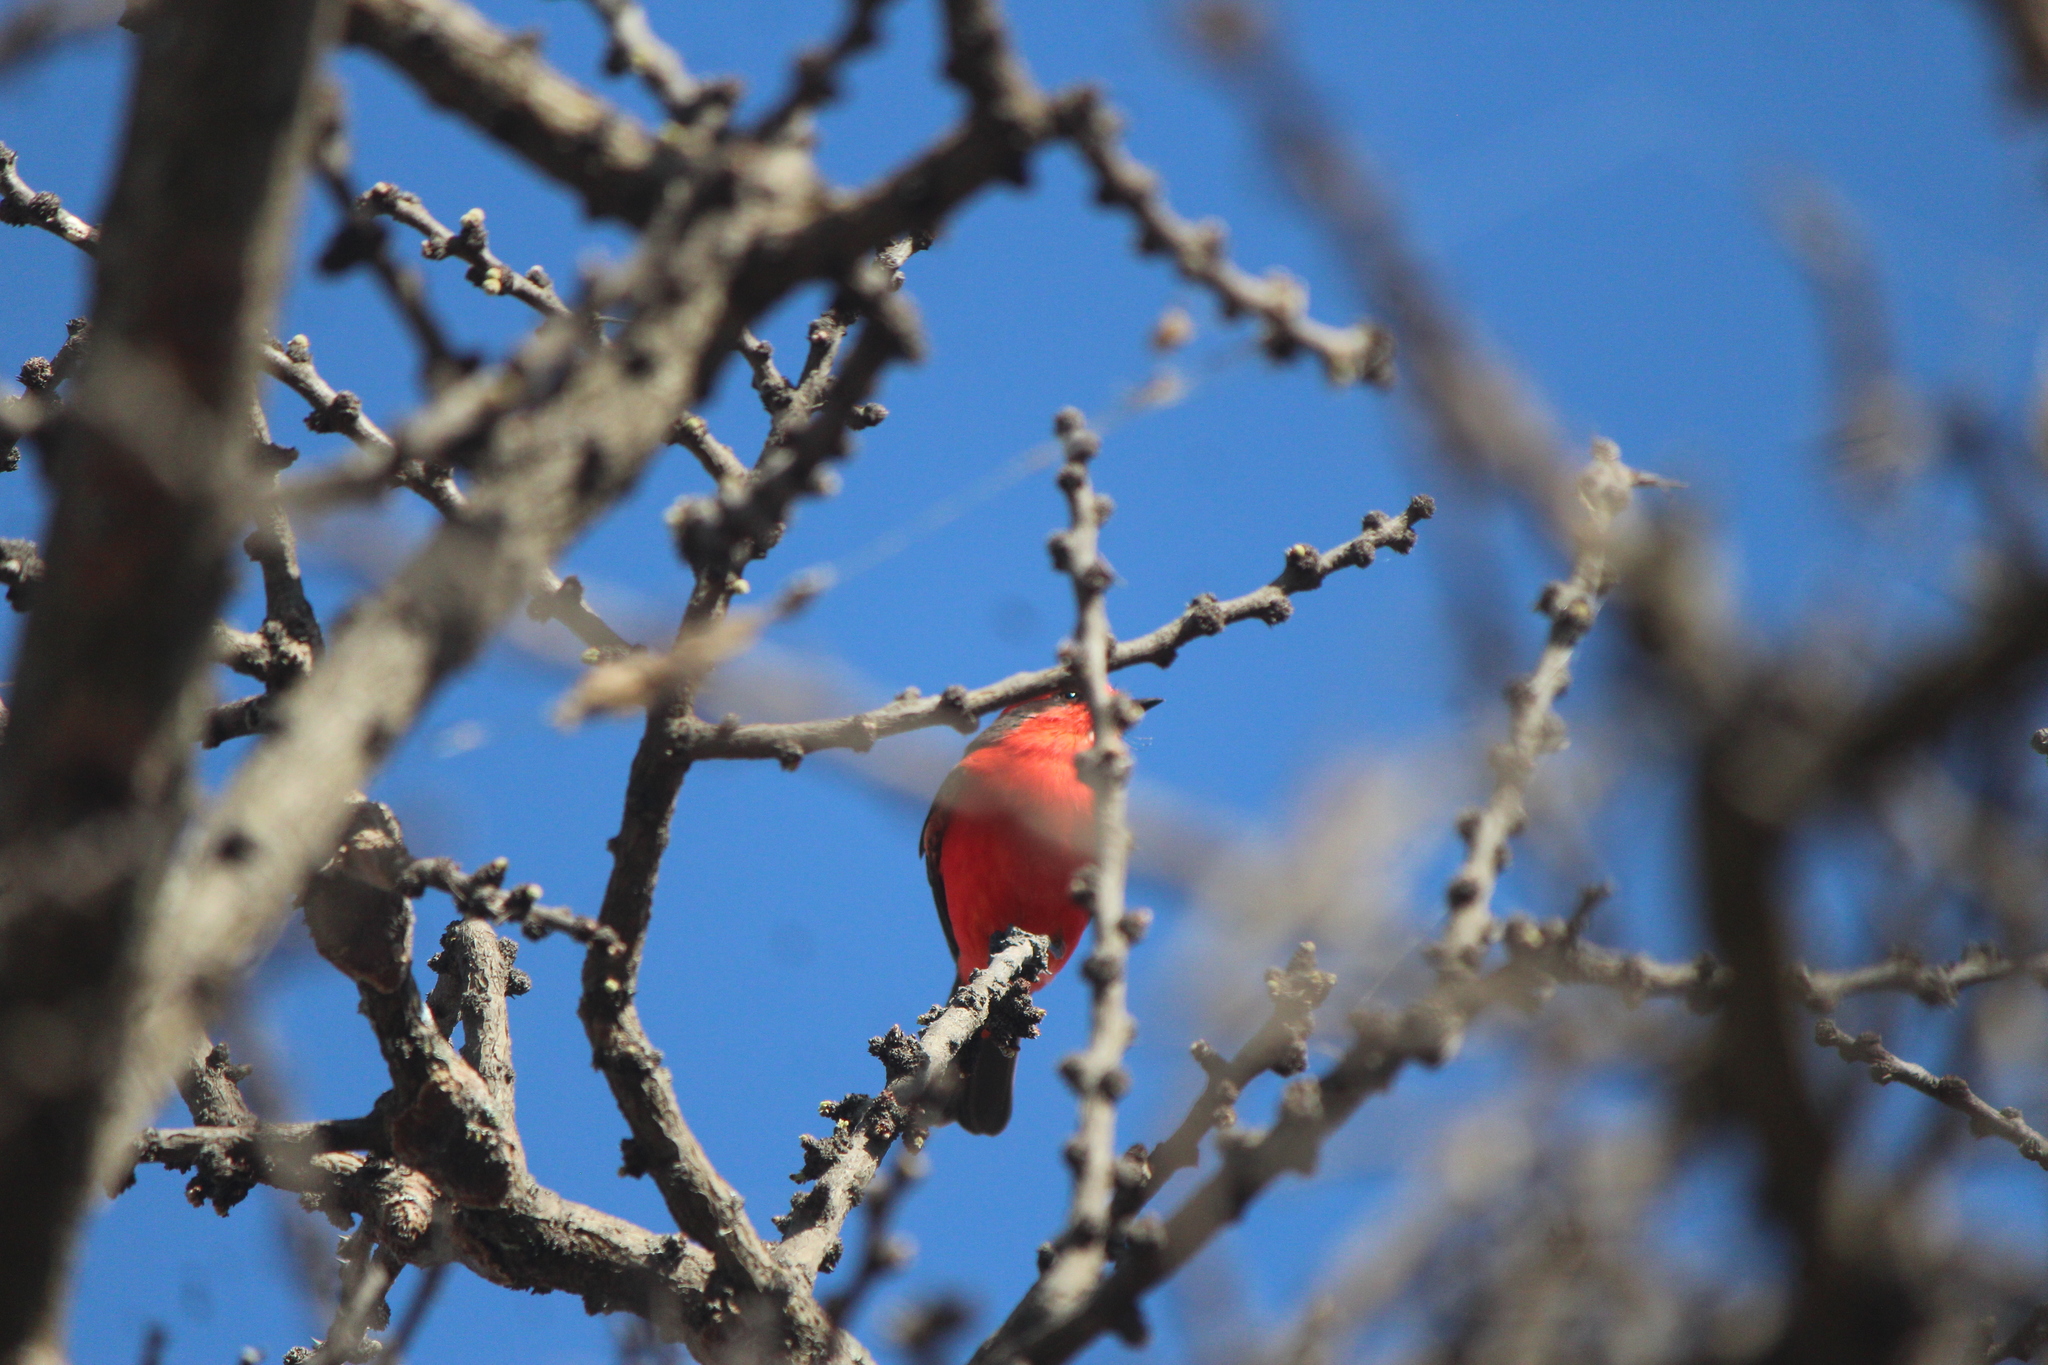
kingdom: Animalia
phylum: Chordata
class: Aves
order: Passeriformes
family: Tyrannidae
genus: Pyrocephalus
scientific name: Pyrocephalus rubinus
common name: Vermilion flycatcher
